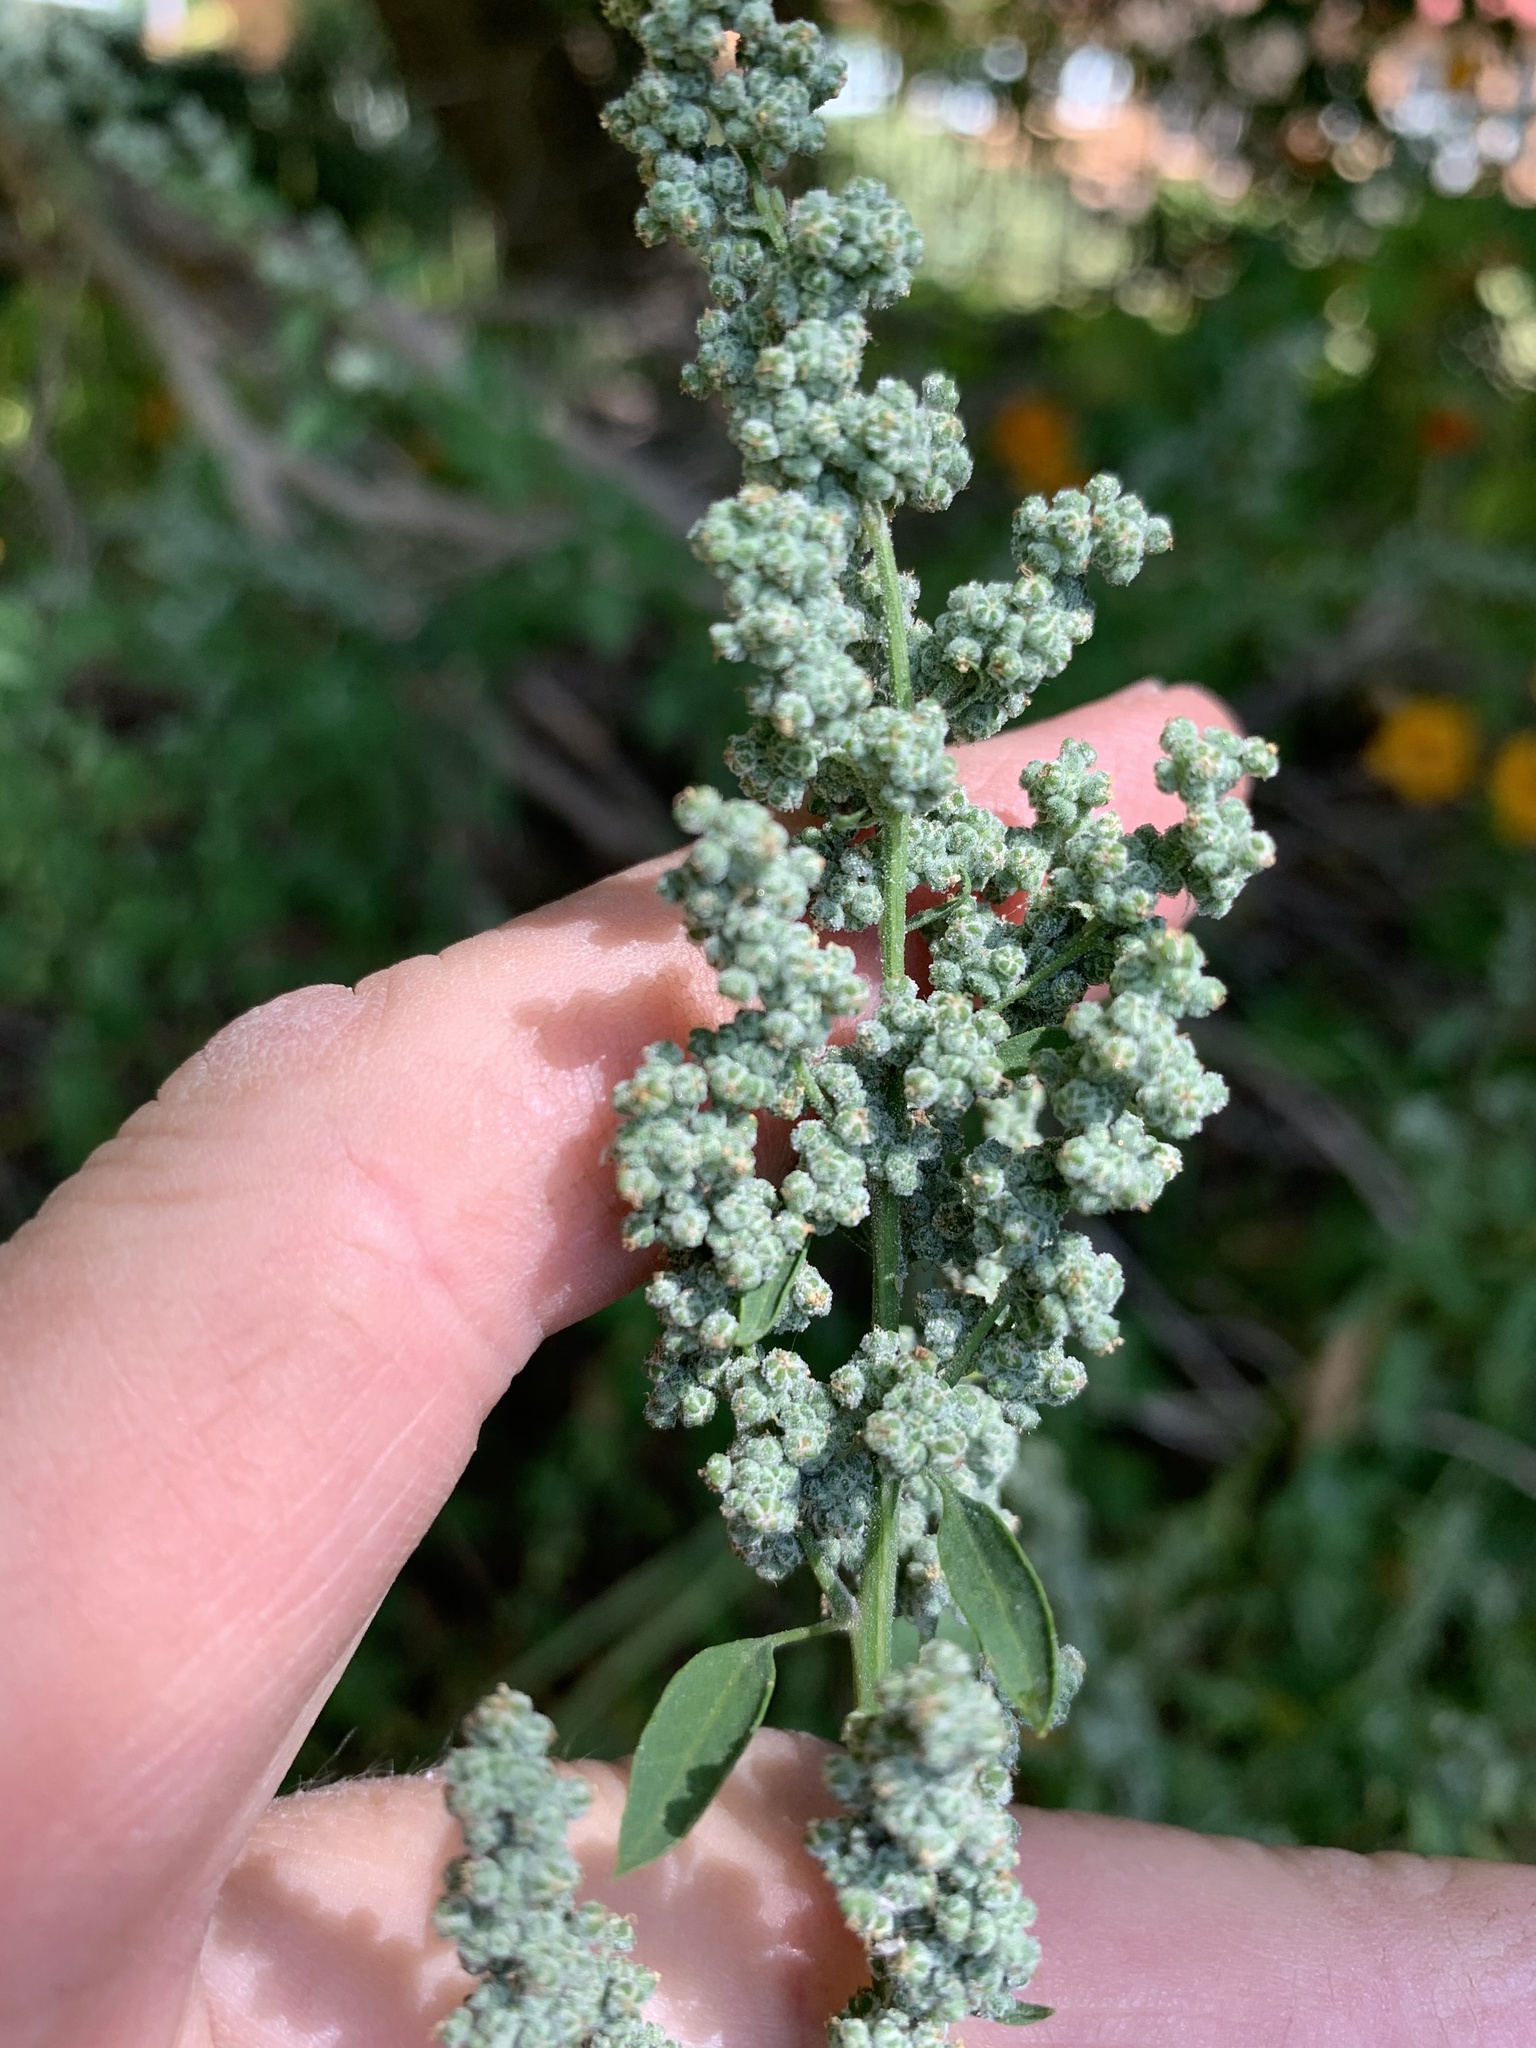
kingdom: Plantae
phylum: Tracheophyta
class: Magnoliopsida
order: Caryophyllales
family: Amaranthaceae
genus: Chenopodium
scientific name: Chenopodium album
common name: Fat-hen
